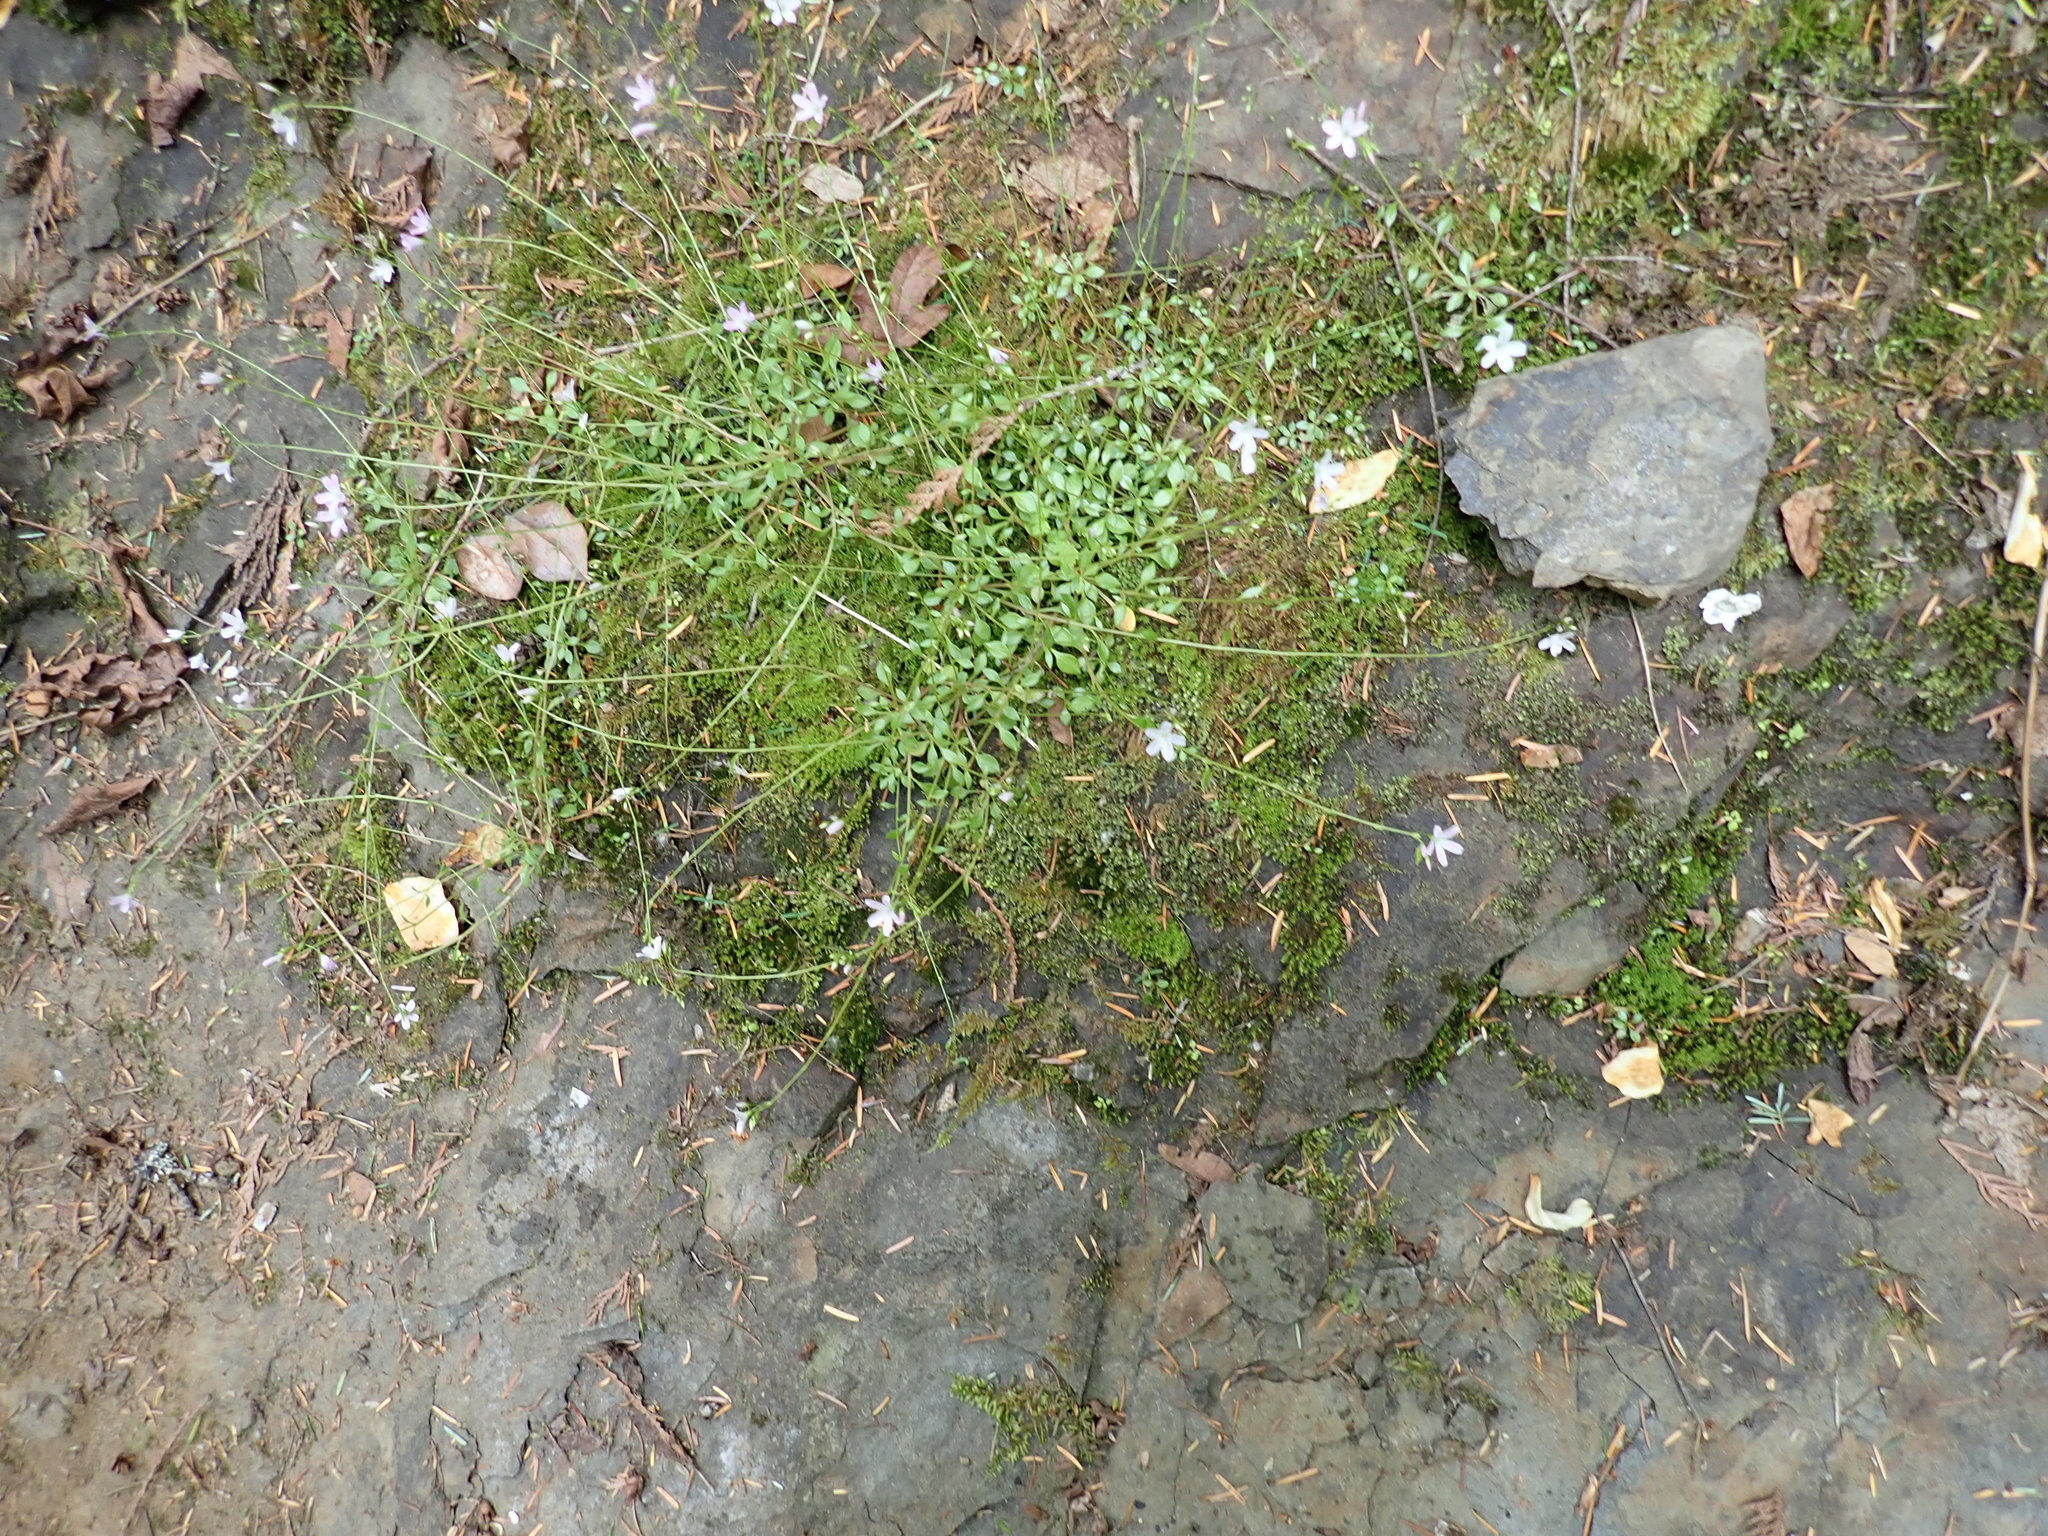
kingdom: Plantae
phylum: Tracheophyta
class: Magnoliopsida
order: Caryophyllales
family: Montiaceae
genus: Montia
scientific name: Montia parvifolia
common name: Small-leaved blinks
